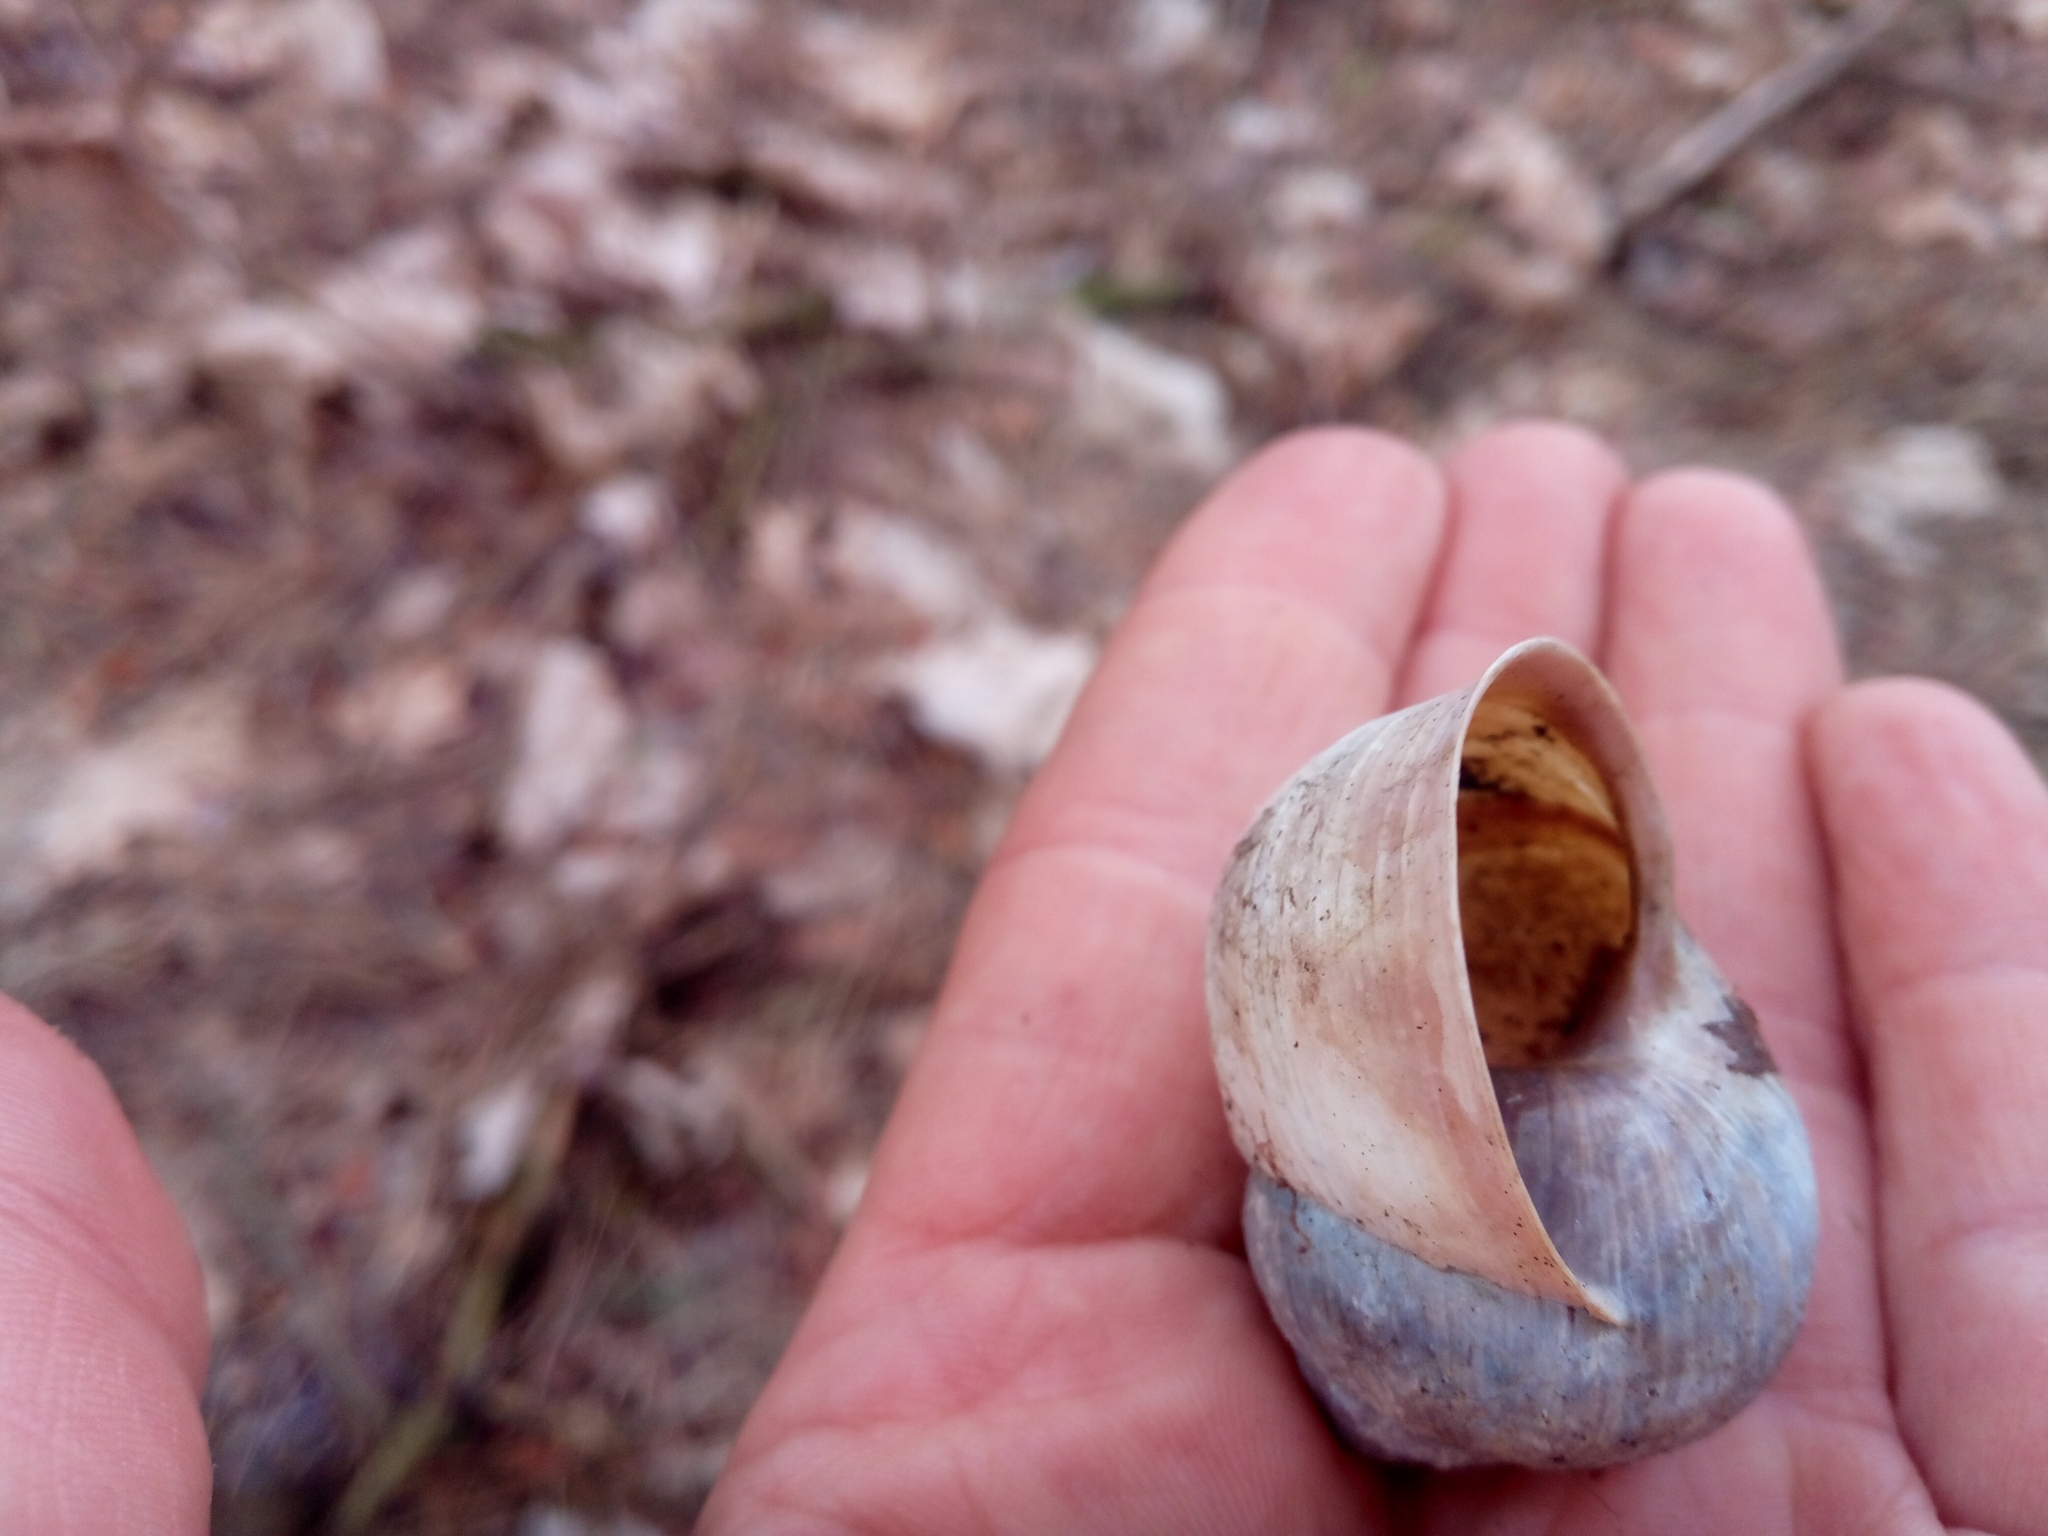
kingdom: Animalia
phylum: Mollusca
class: Gastropoda
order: Stylommatophora
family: Helicidae
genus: Helix
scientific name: Helix pomatia
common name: Roman snail
